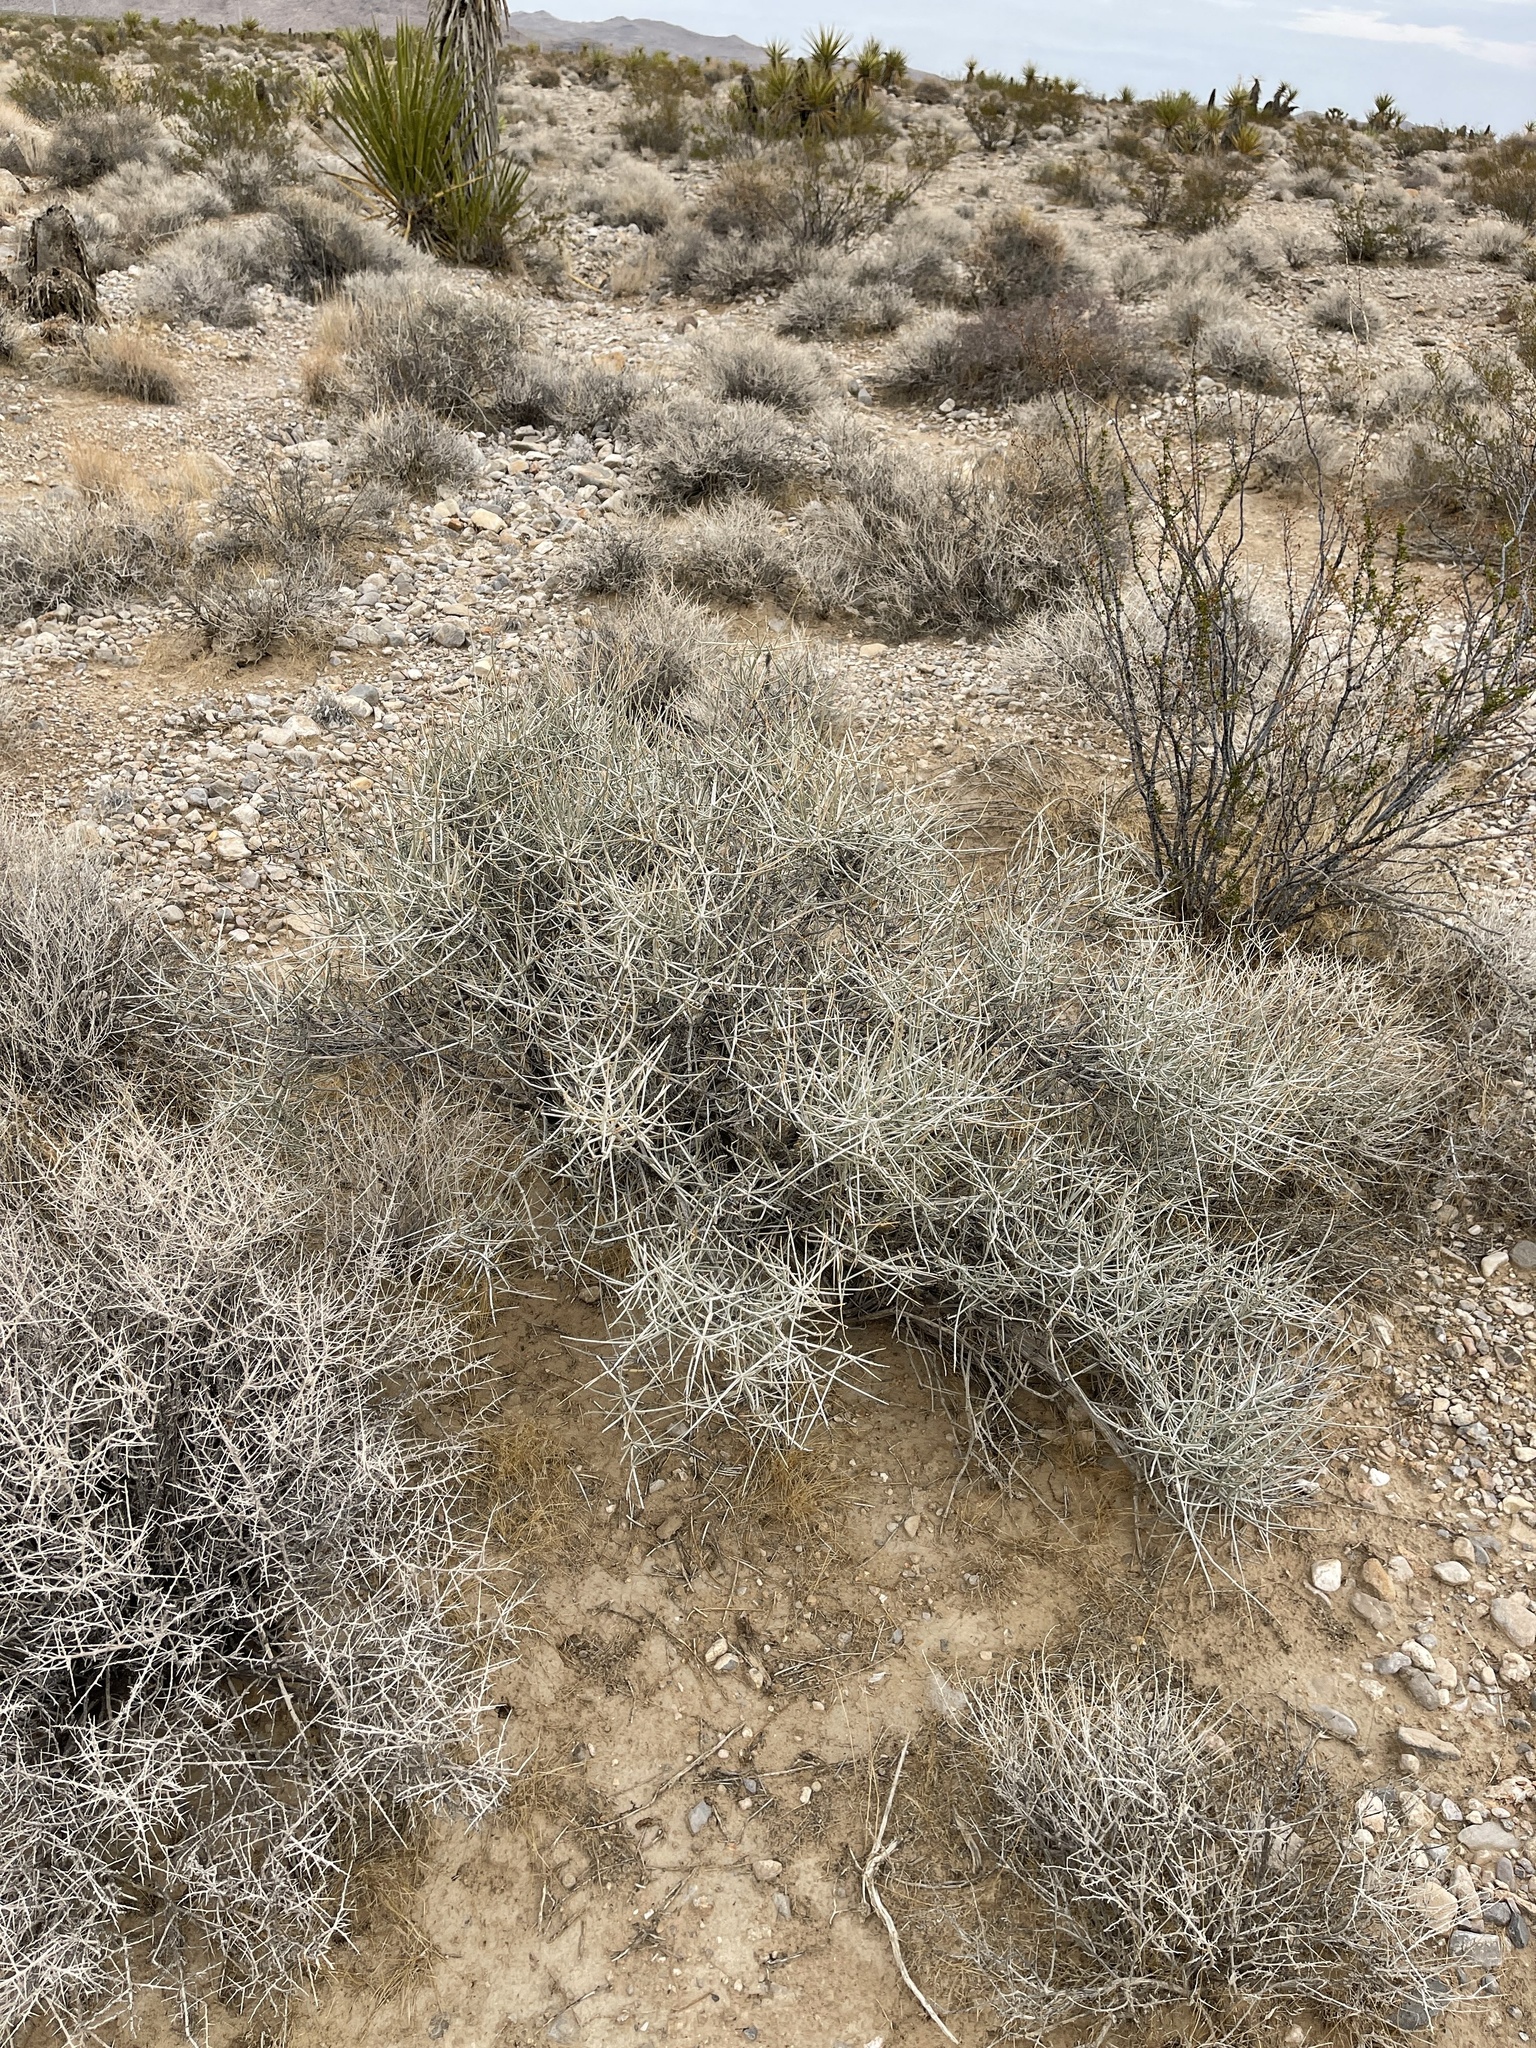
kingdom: Plantae
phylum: Tracheophyta
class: Gnetopsida
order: Ephedrales
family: Ephedraceae
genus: Ephedra
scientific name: Ephedra nevadensis
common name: Gray ephedra
